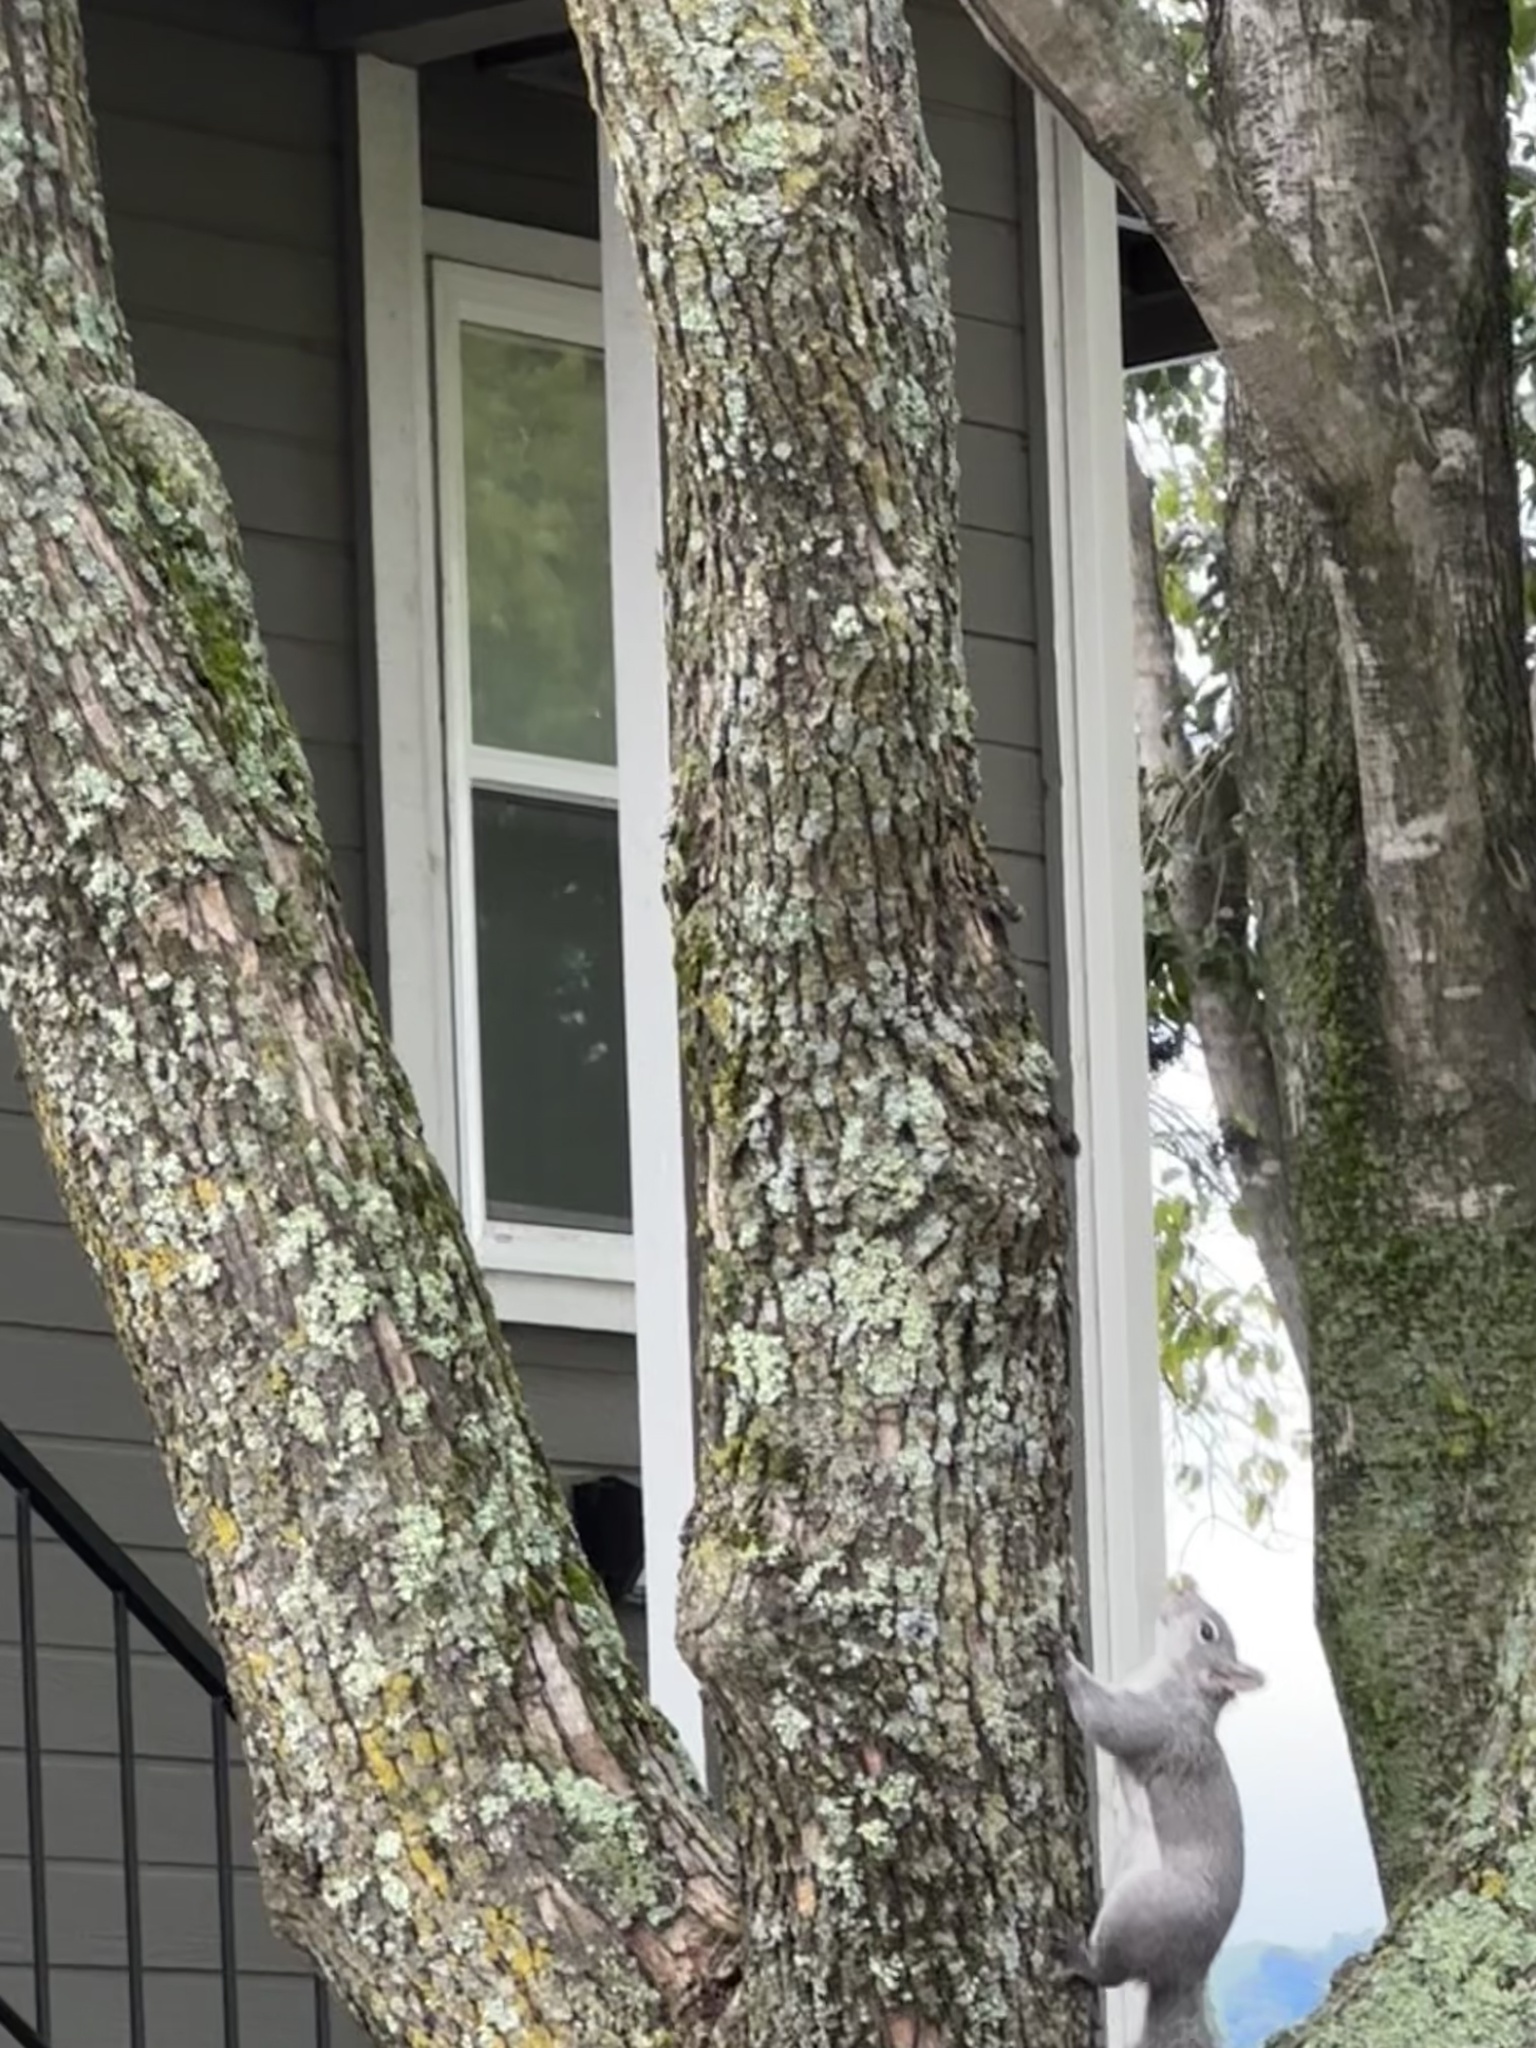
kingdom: Animalia
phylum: Chordata
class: Mammalia
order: Rodentia
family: Sciuridae
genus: Sciurus
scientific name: Sciurus griseus
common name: Western gray squirrel
